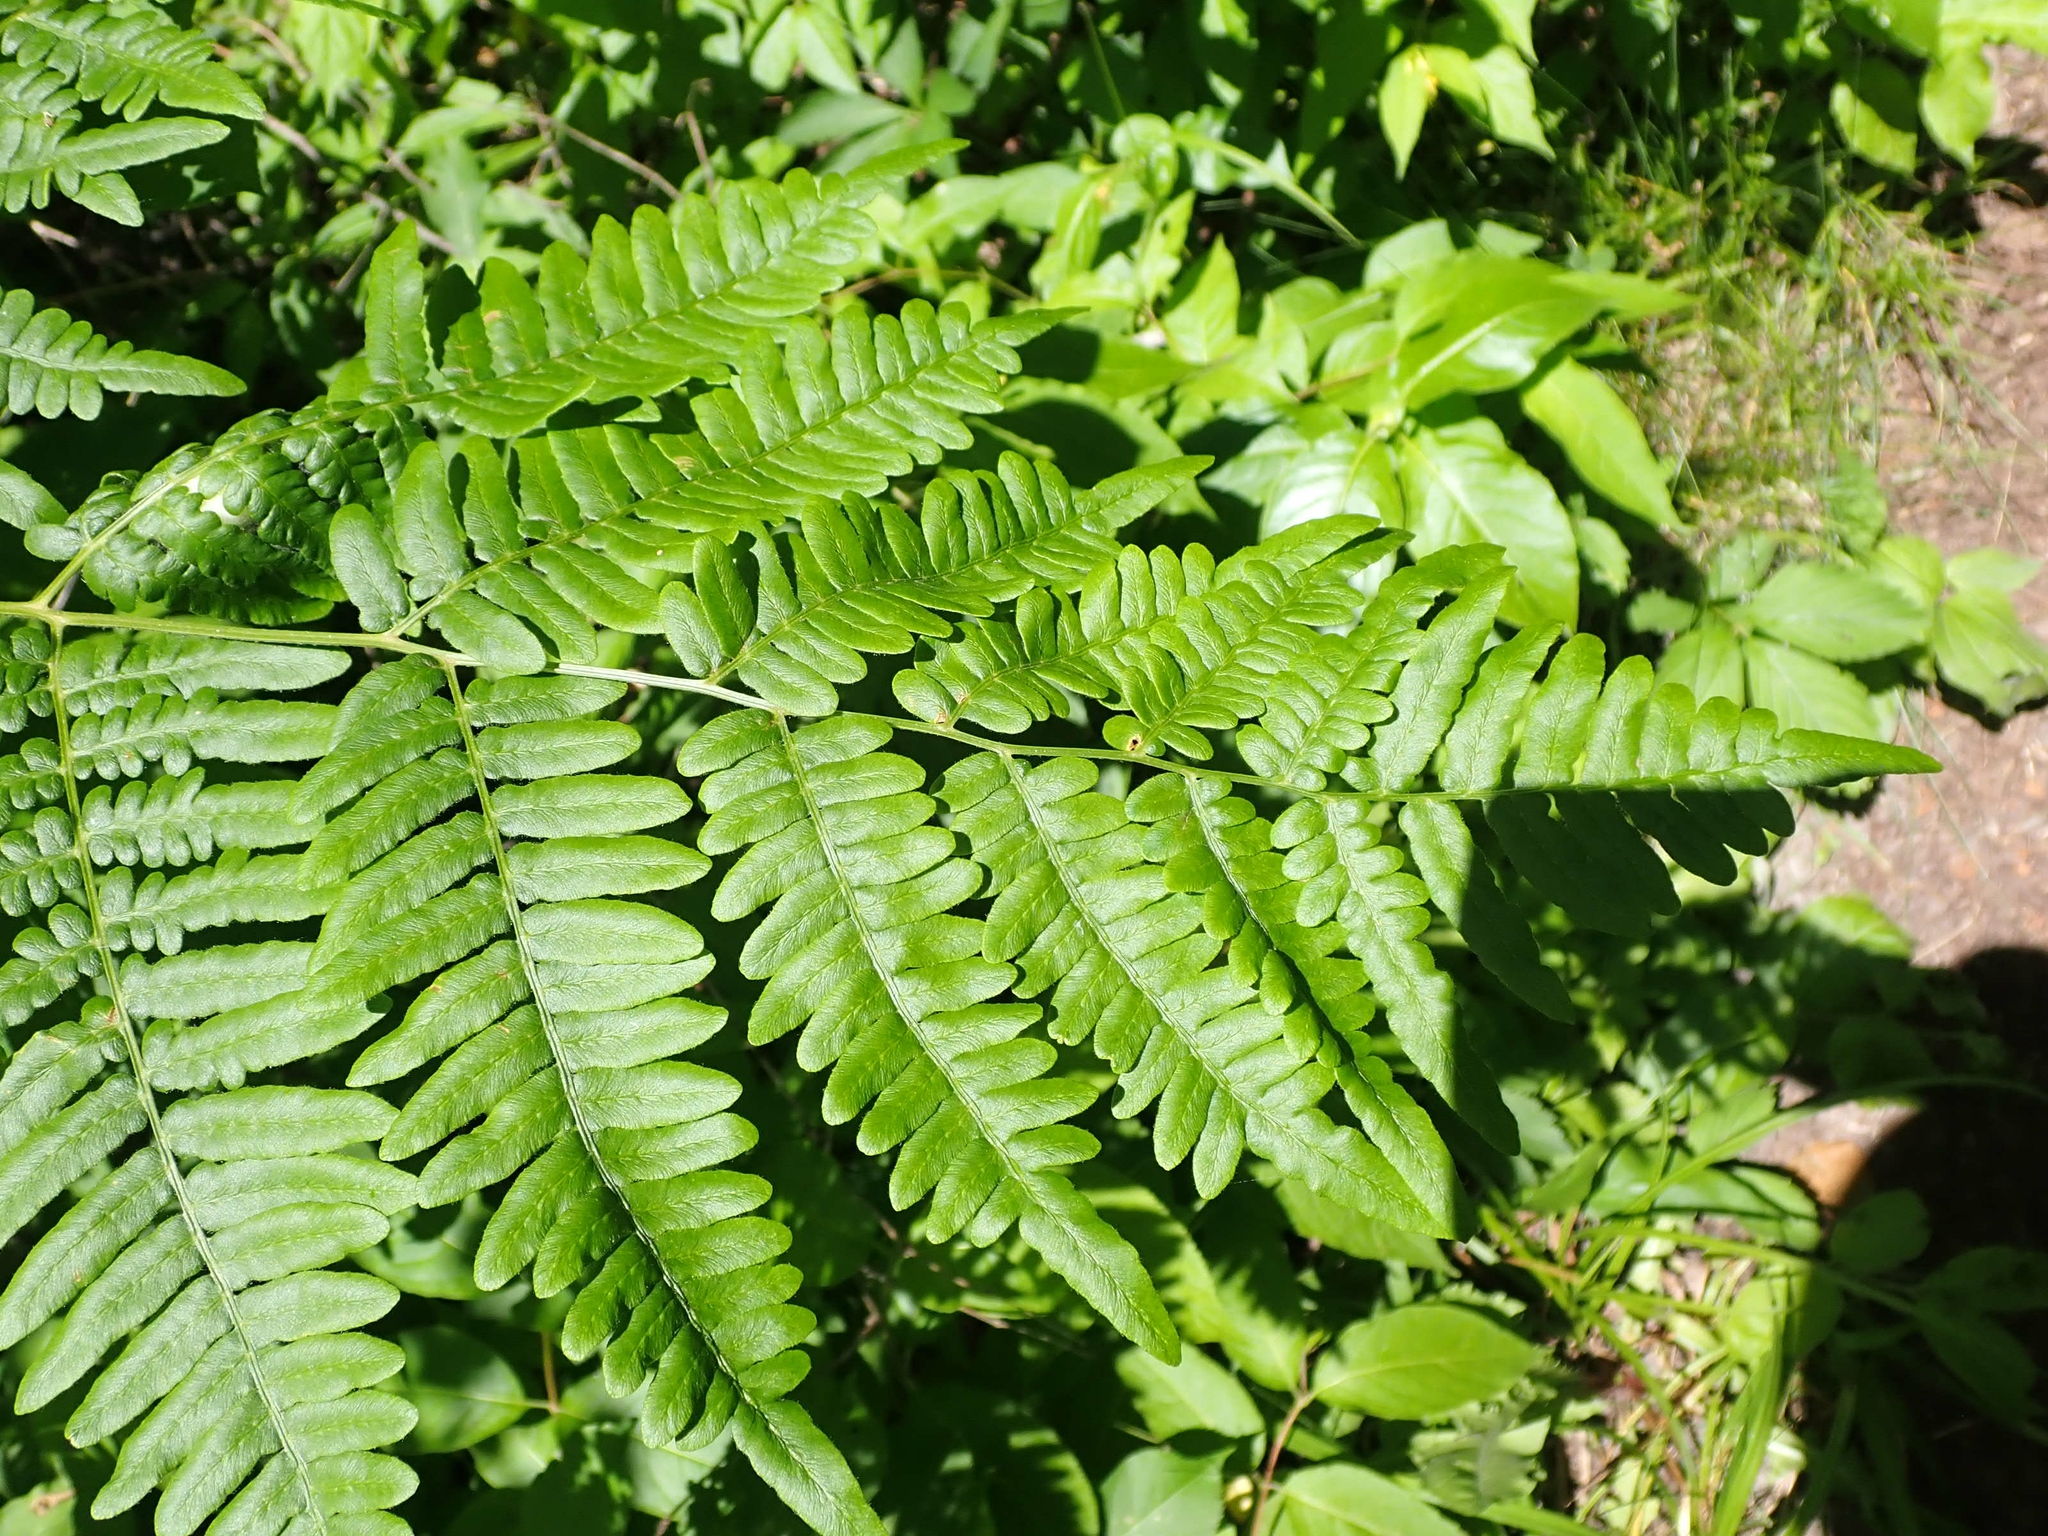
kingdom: Plantae
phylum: Tracheophyta
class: Polypodiopsida
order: Polypodiales
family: Dennstaedtiaceae
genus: Pteridium
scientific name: Pteridium aquilinum
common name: Bracken
